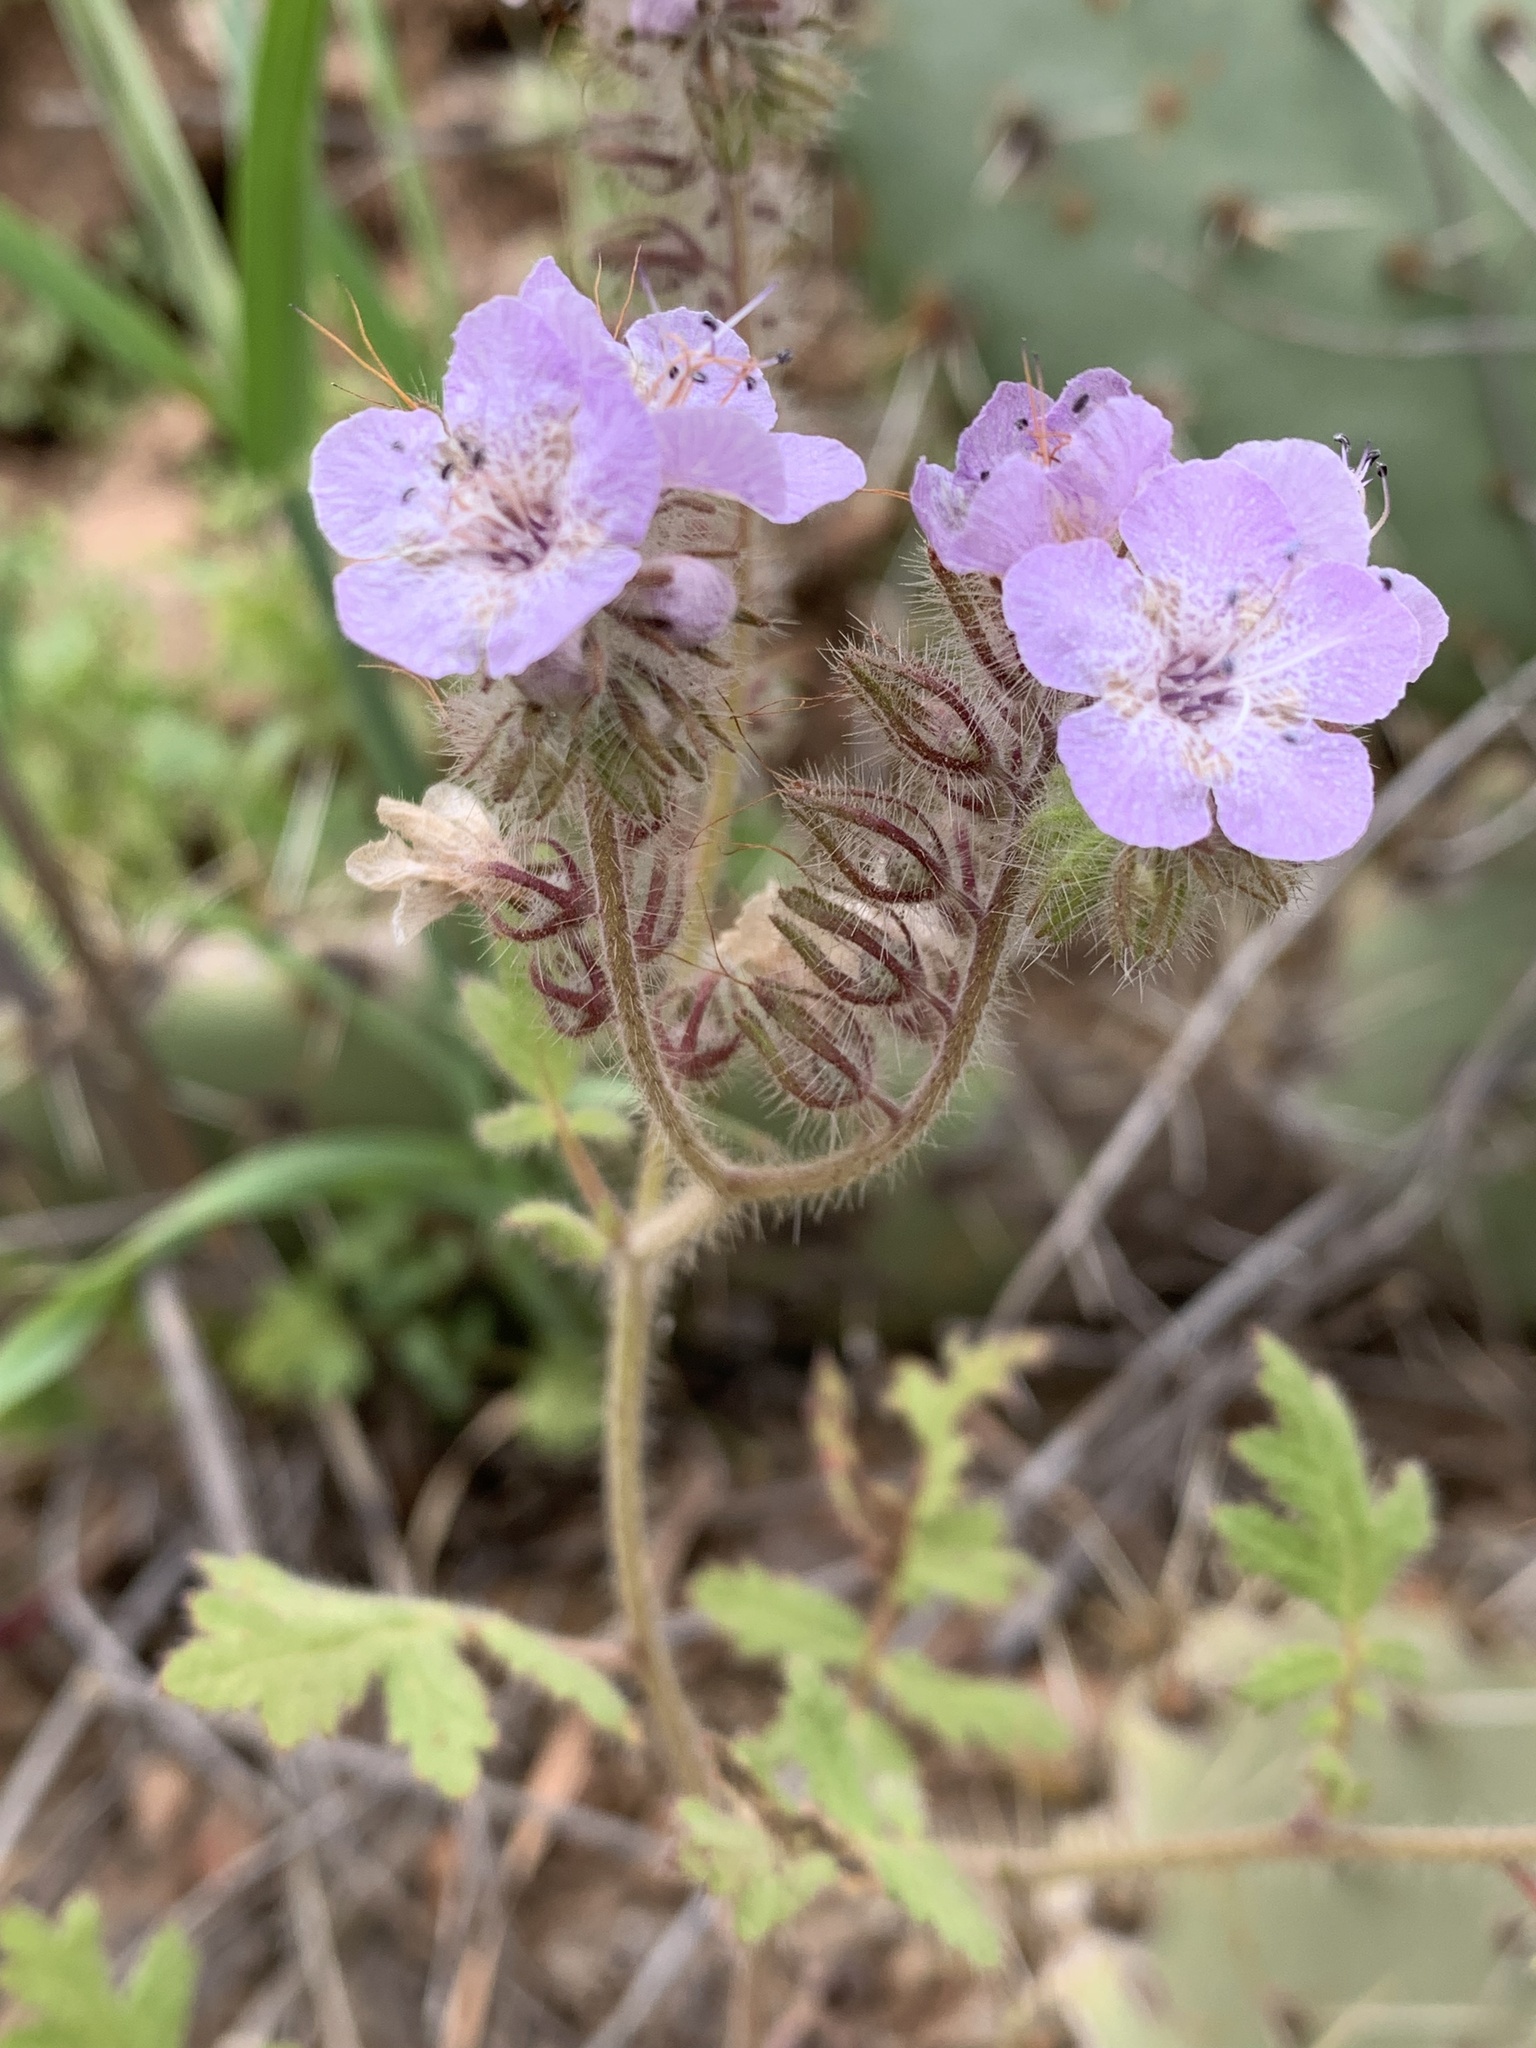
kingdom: Plantae
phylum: Tracheophyta
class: Magnoliopsida
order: Boraginales
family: Hydrophyllaceae
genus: Phacelia
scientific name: Phacelia cicutaria
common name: Caterpillar phacelia
